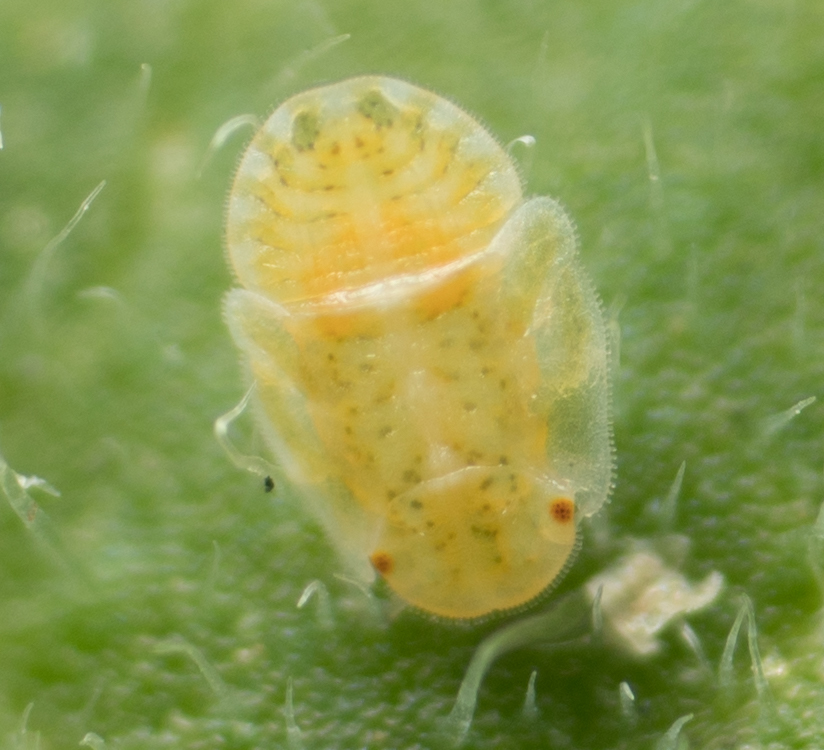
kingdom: Animalia
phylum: Arthropoda
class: Insecta
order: Hemiptera
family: Triozidae
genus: Bactericera
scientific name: Bactericera cockerelli
